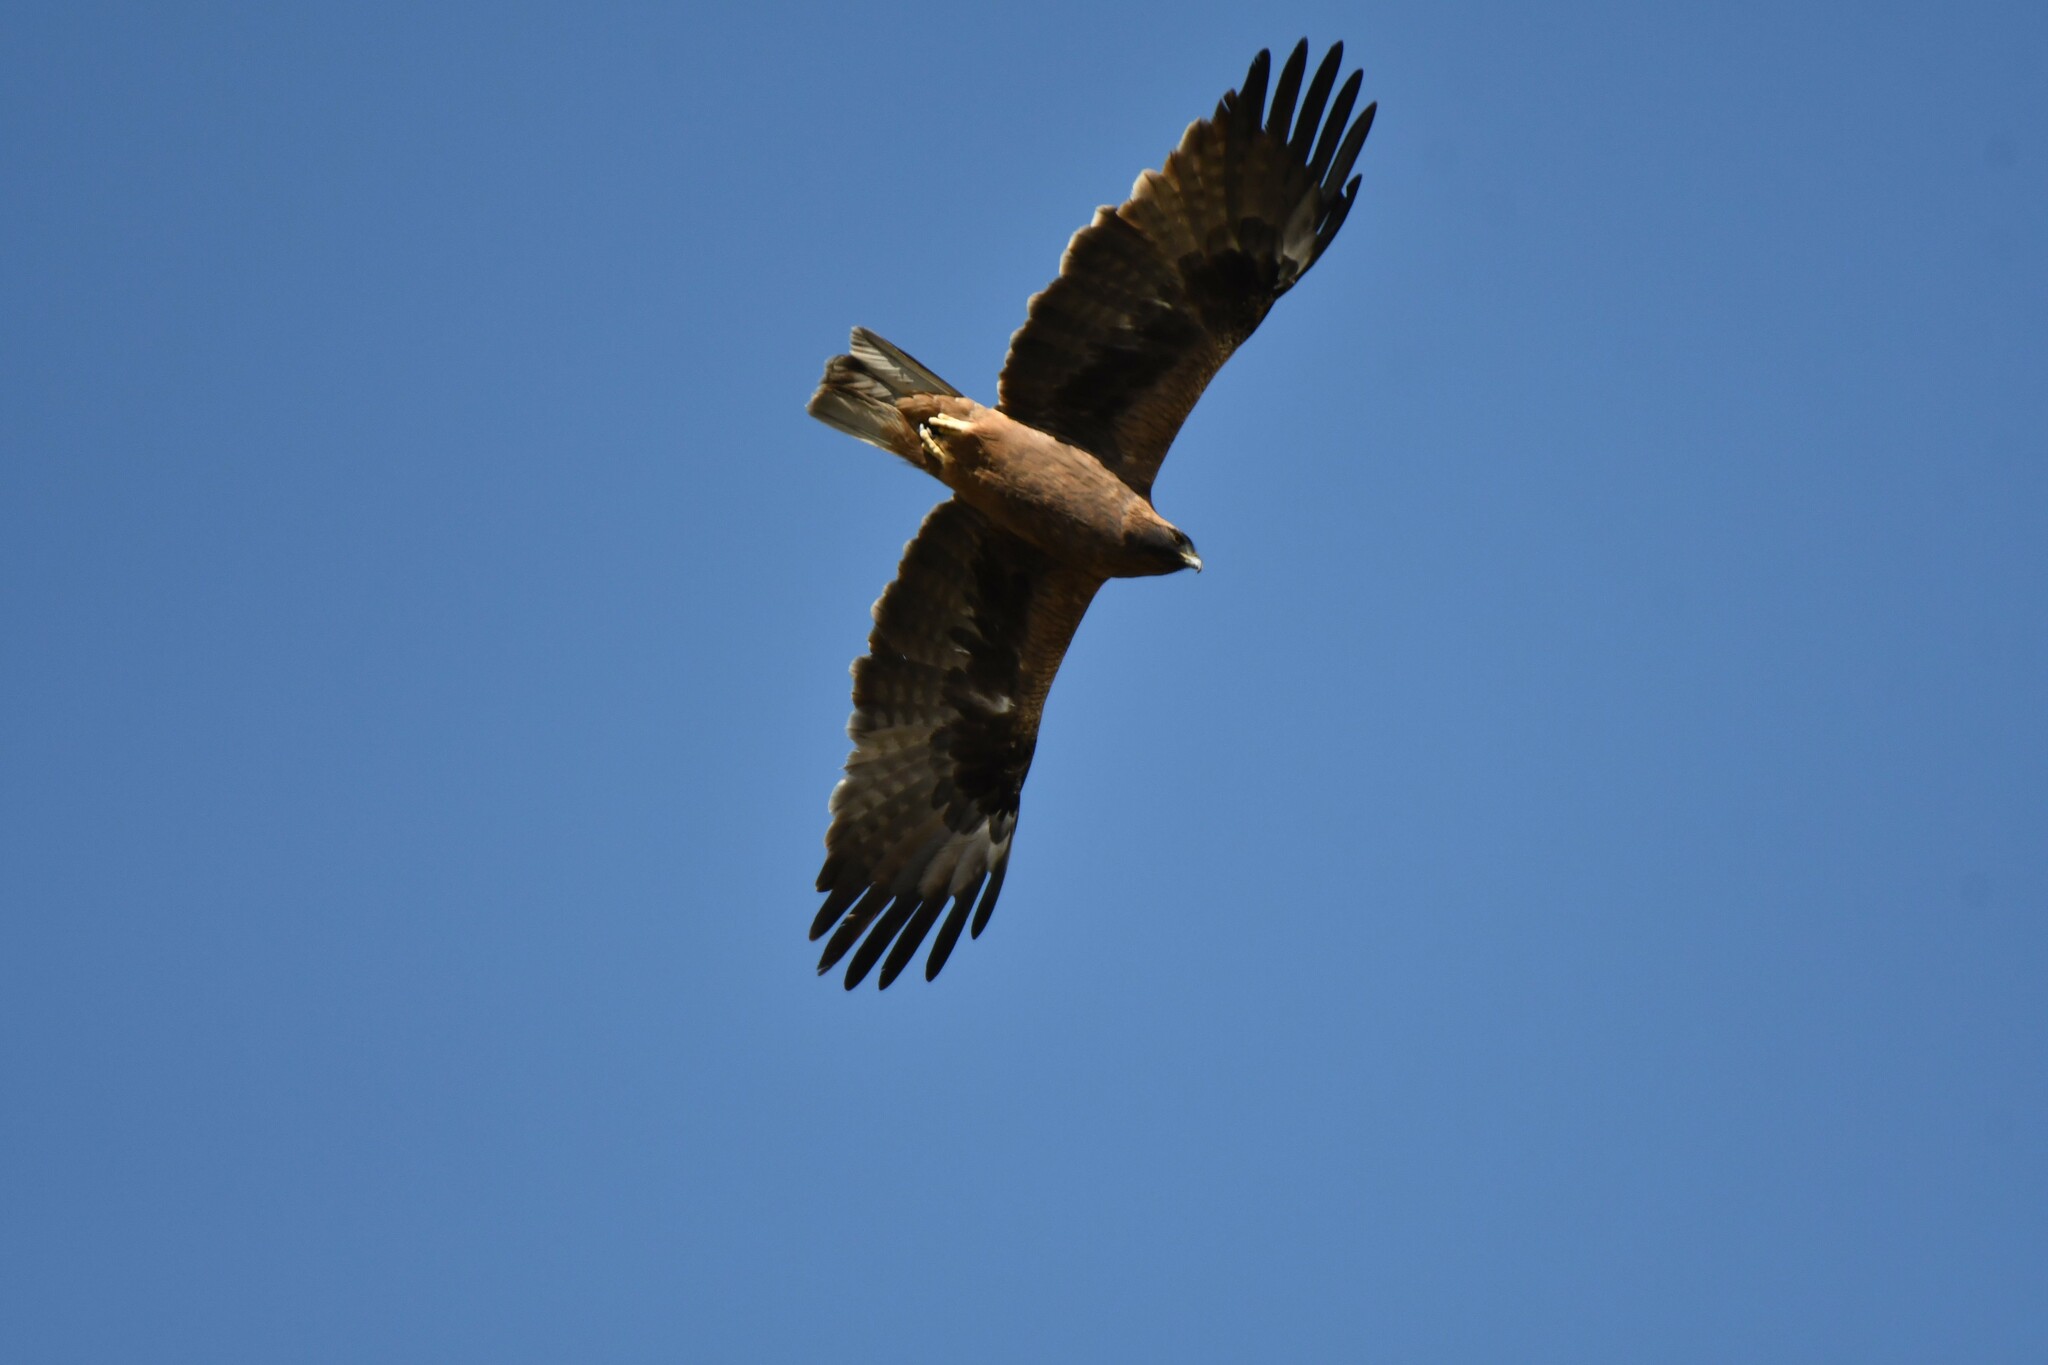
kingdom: Animalia
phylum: Chordata
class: Aves
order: Accipitriformes
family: Accipitridae
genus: Hieraaetus
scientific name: Hieraaetus pennatus
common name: Booted eagle
